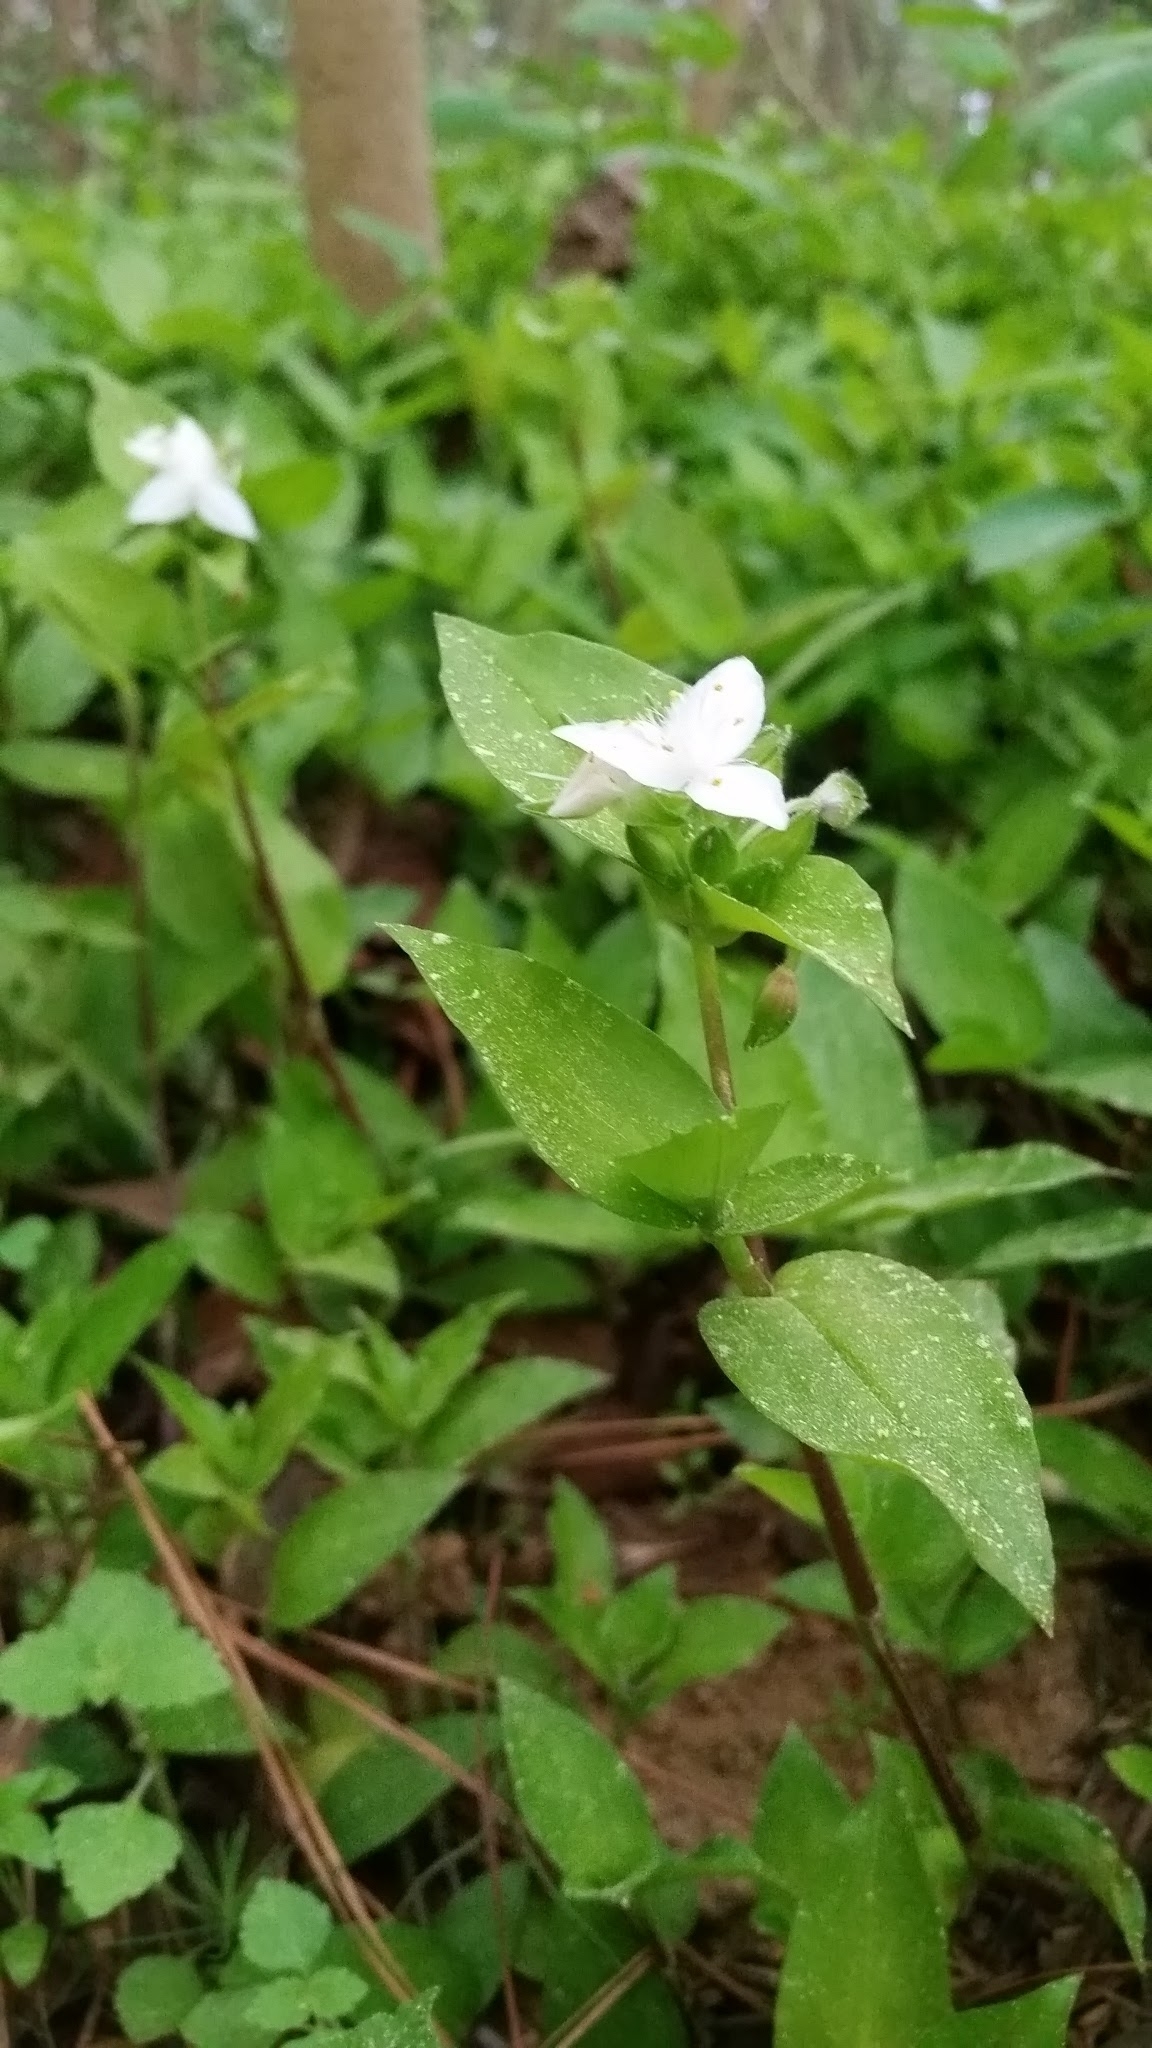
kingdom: Plantae
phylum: Tracheophyta
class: Liliopsida
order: Commelinales
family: Commelinaceae
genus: Tradescantia
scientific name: Tradescantia fluminensis
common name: Wandering-jew
